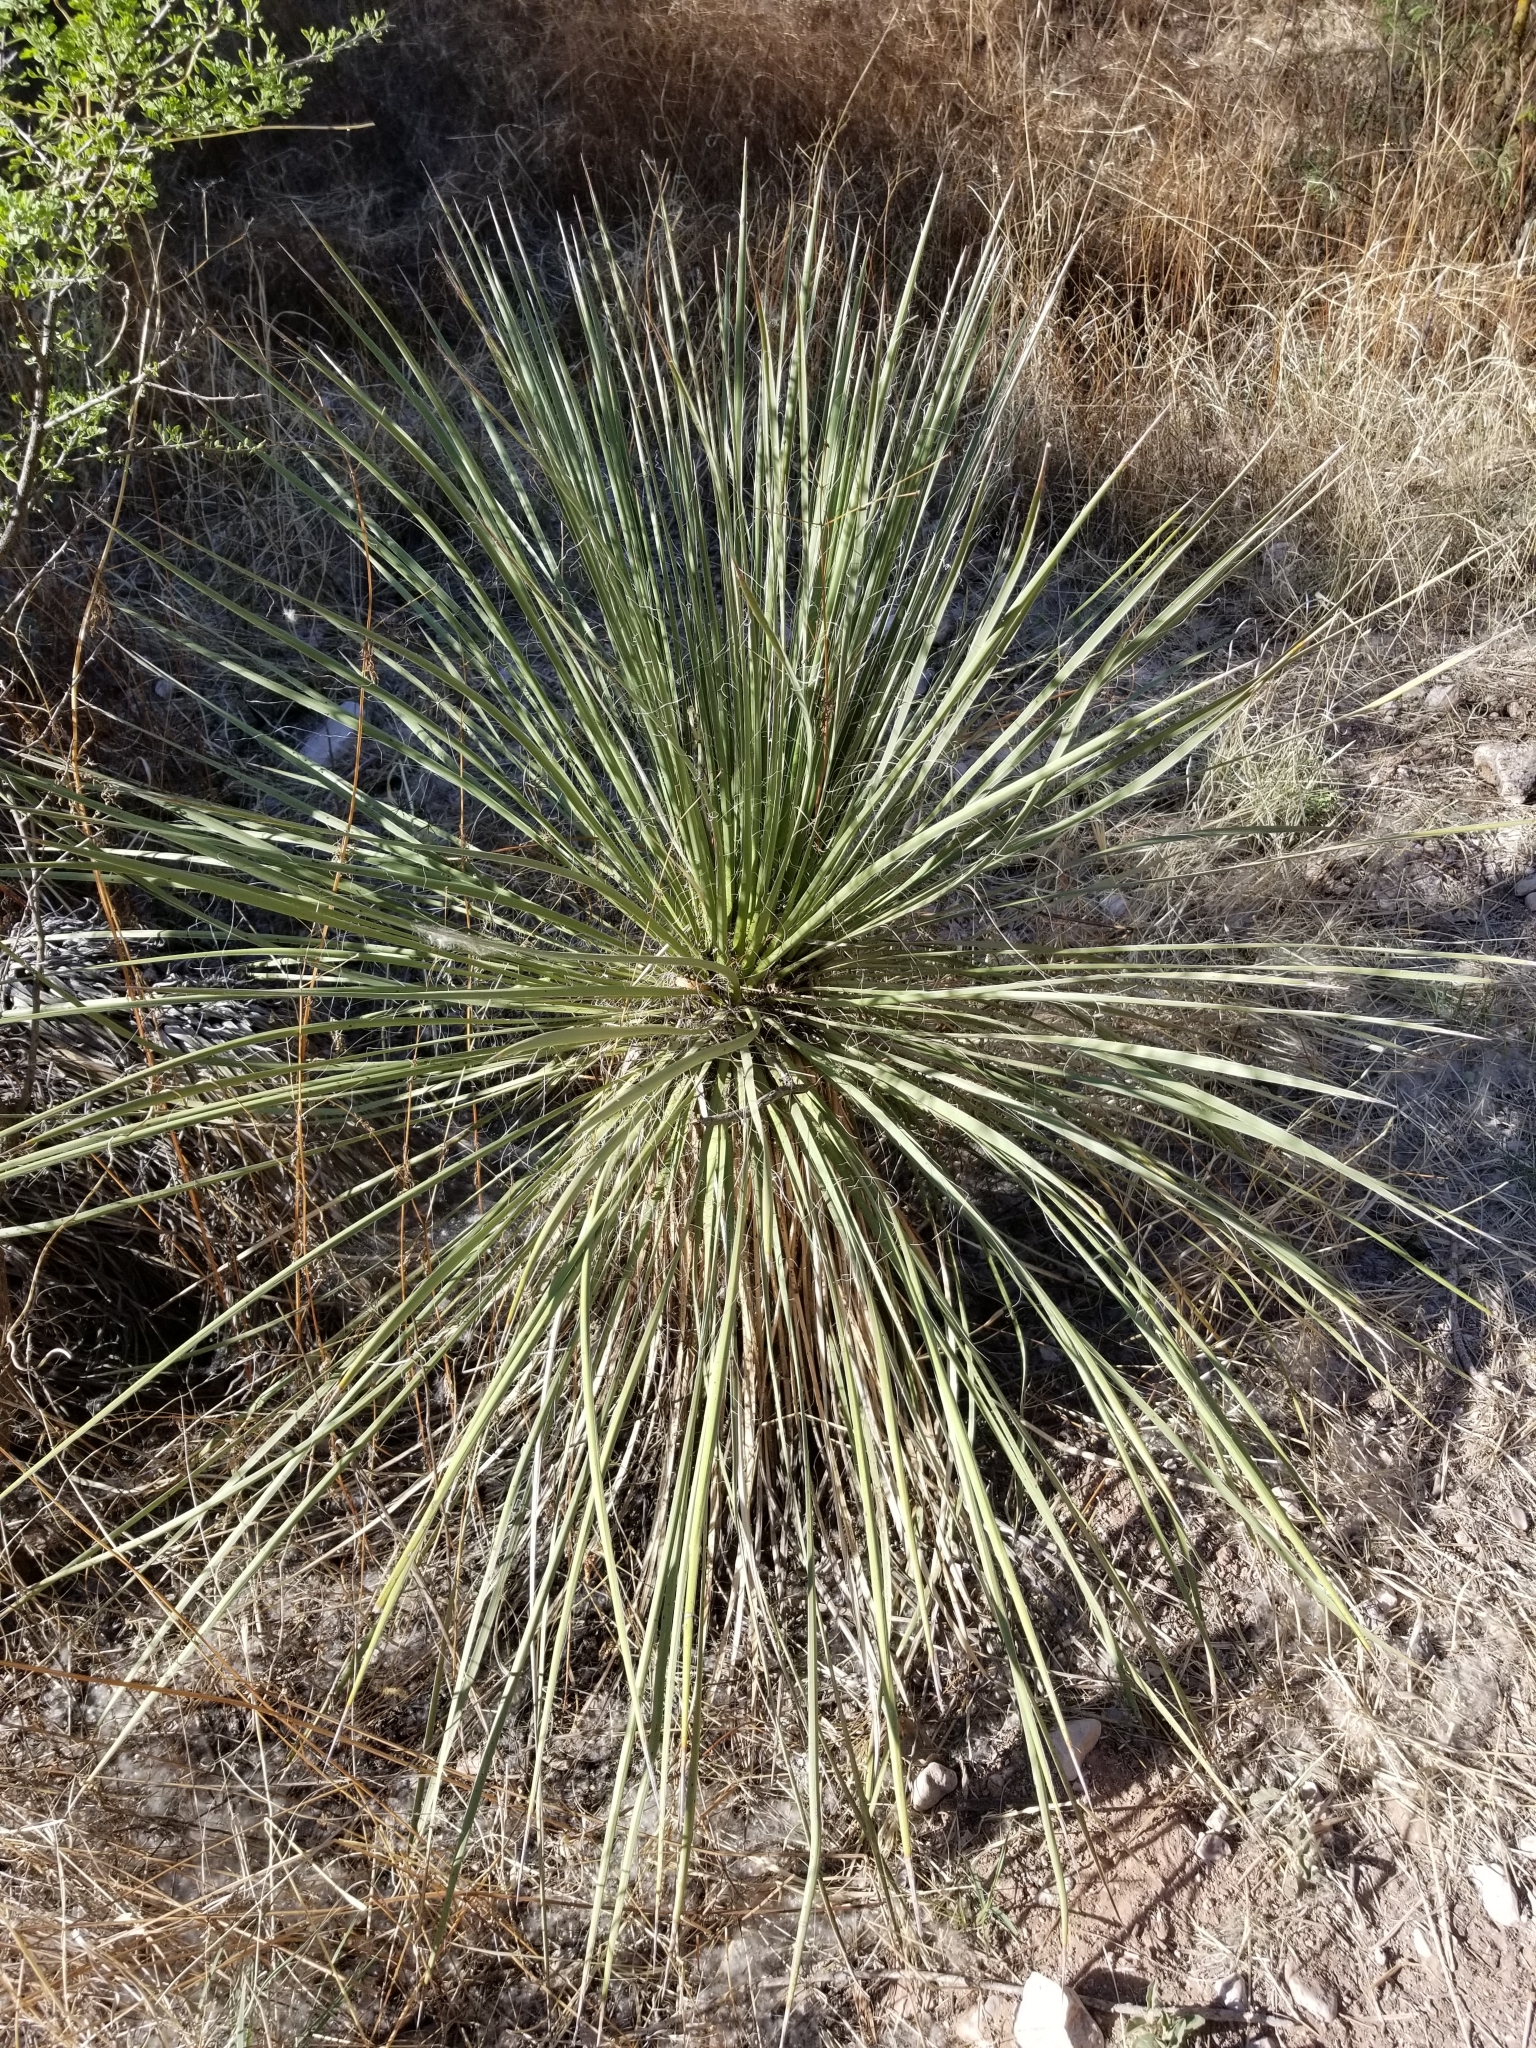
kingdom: Plantae
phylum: Tracheophyta
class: Liliopsida
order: Asparagales
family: Asparagaceae
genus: Yucca
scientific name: Yucca elata
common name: Palmella
